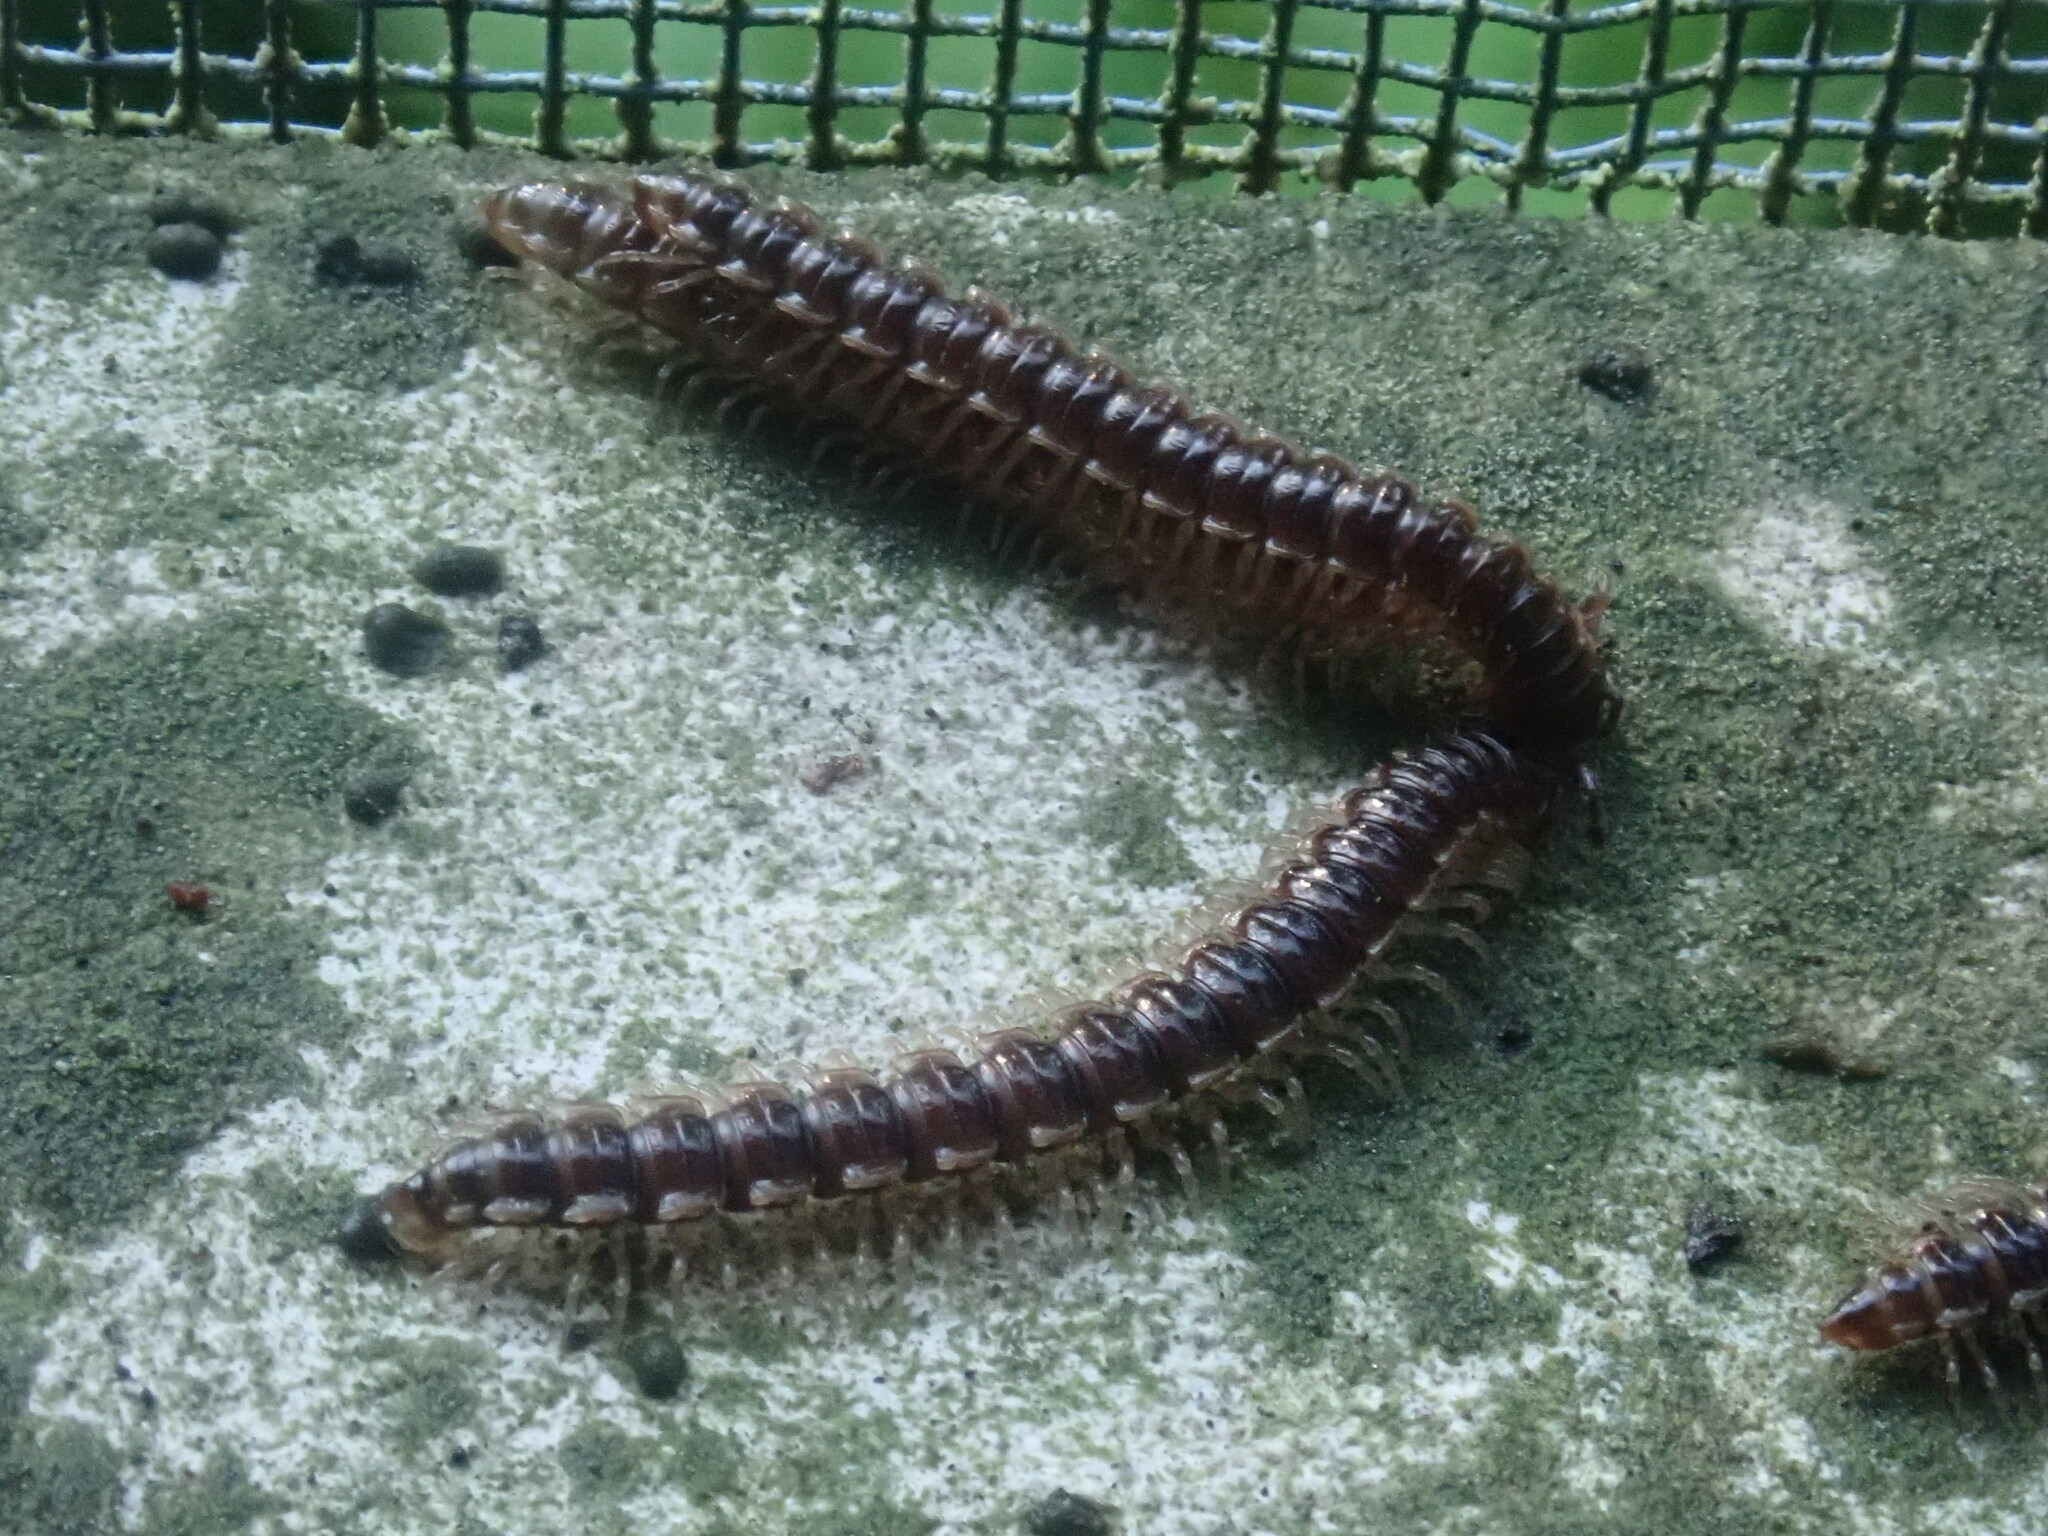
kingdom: Animalia
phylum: Arthropoda
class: Diplopoda
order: Polydesmida
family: Paradoxosomatidae
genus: Oxidus
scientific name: Oxidus gracilis
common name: Greenhouse millipede
